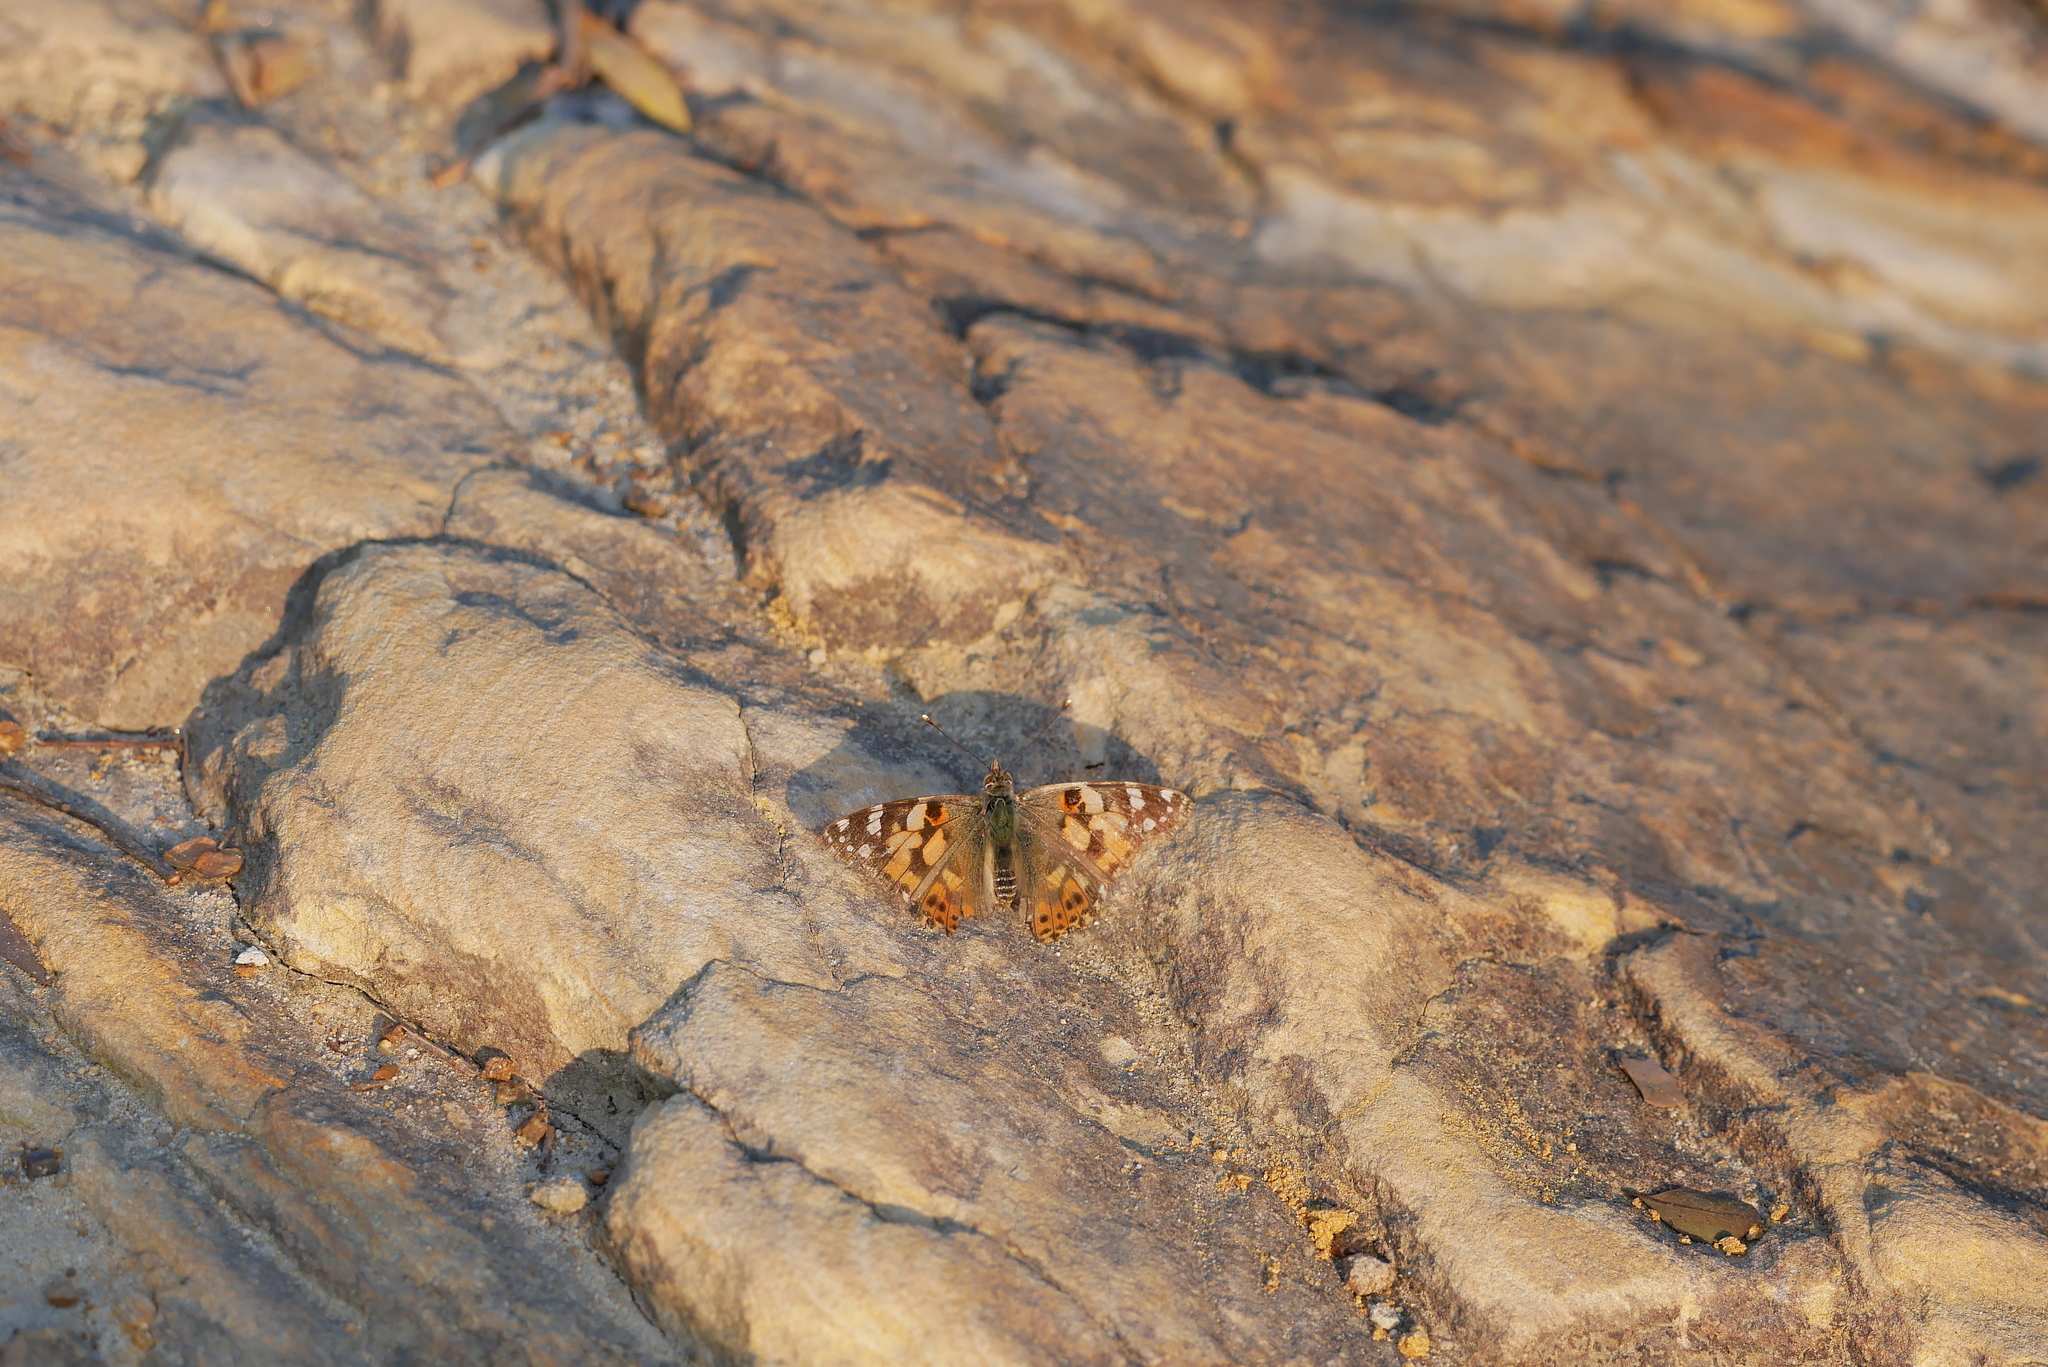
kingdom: Animalia
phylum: Arthropoda
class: Insecta
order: Lepidoptera
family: Nymphalidae
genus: Vanessa
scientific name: Vanessa cardui
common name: Painted lady
